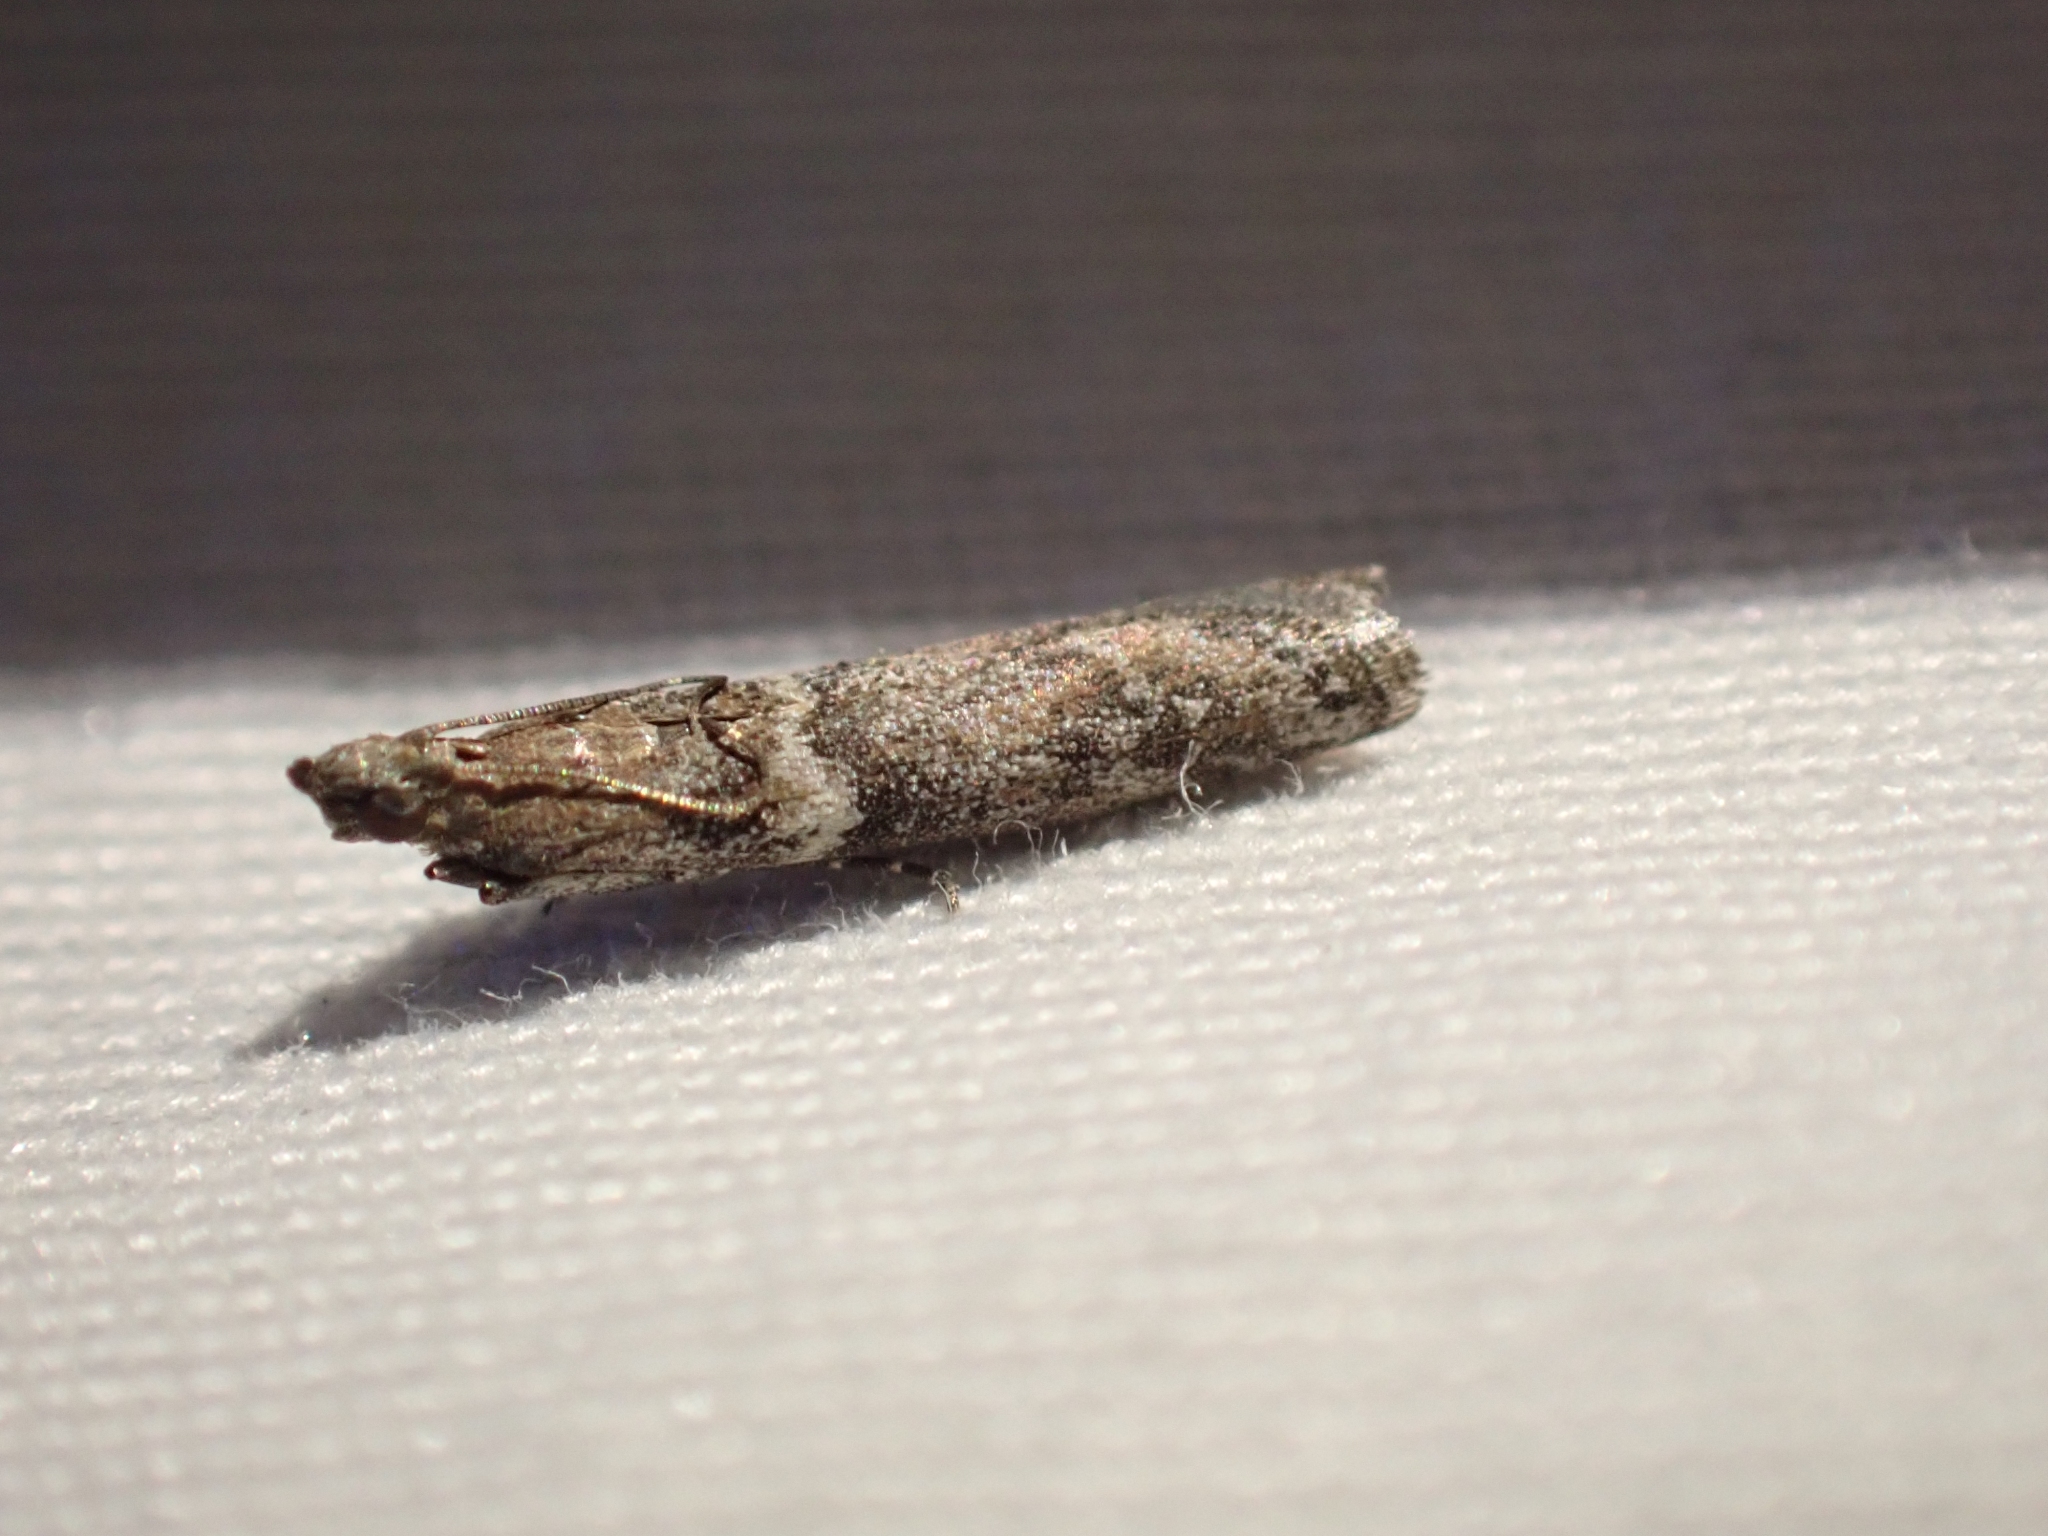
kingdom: Animalia
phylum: Arthropoda
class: Insecta
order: Lepidoptera
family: Pyralidae
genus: Ephestiodes
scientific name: Ephestiodes gilvescentella
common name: Moth
